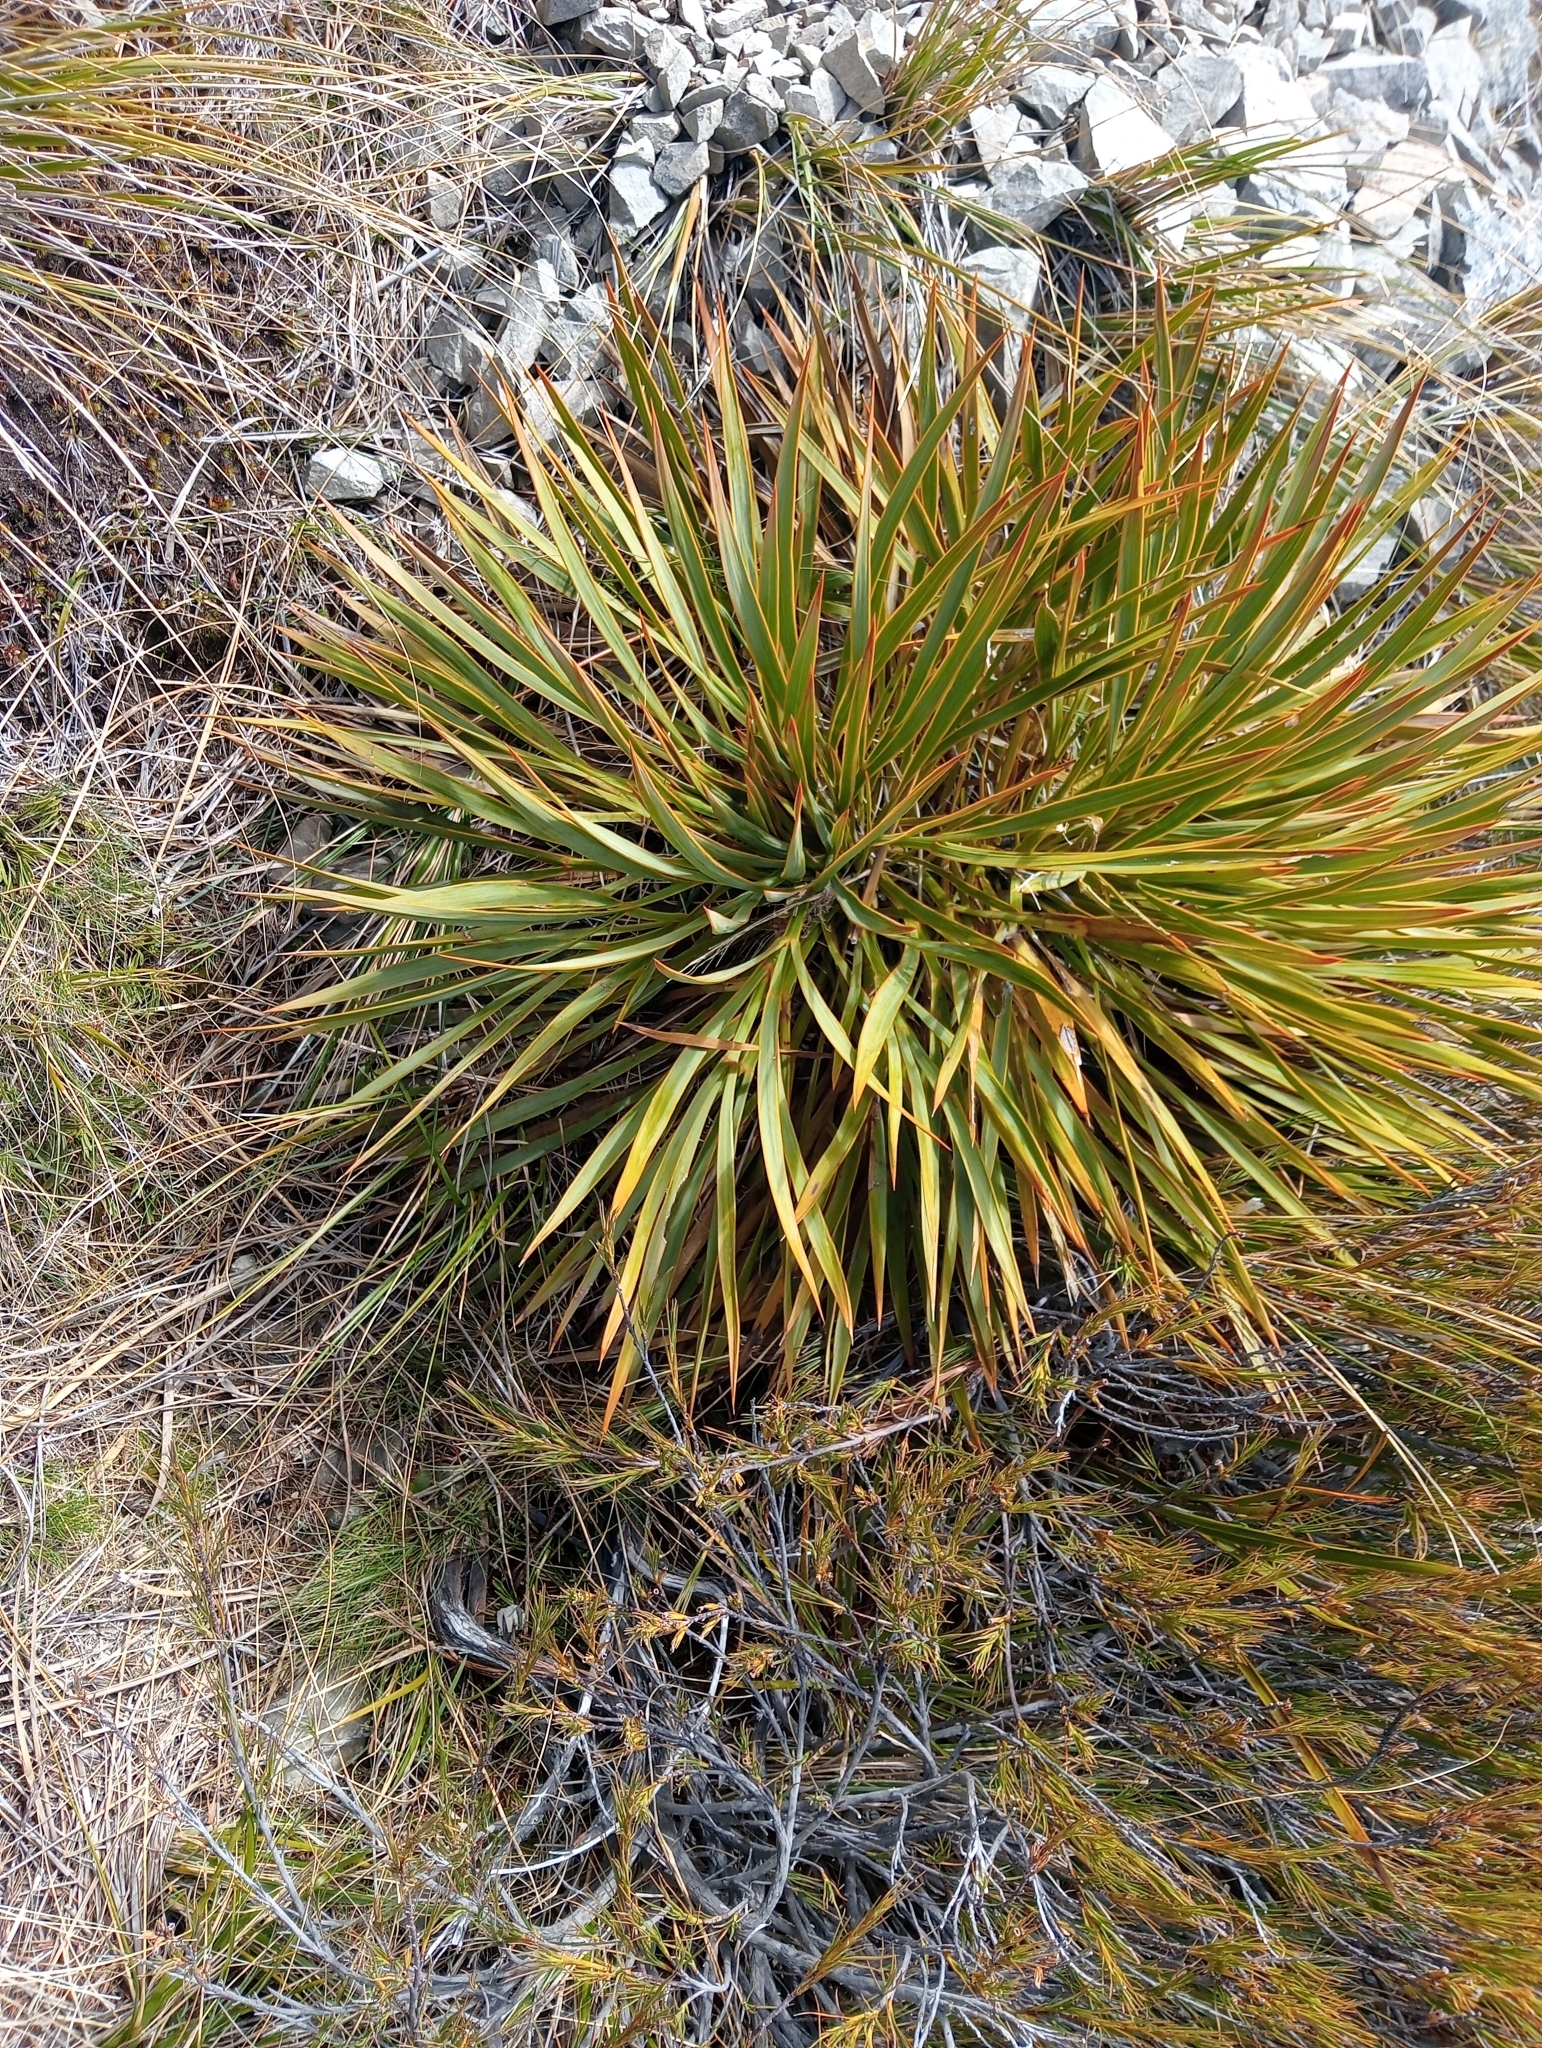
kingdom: Plantae
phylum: Tracheophyta
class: Magnoliopsida
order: Apiales
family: Apiaceae
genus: Aciphylla
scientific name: Aciphylla aurea
